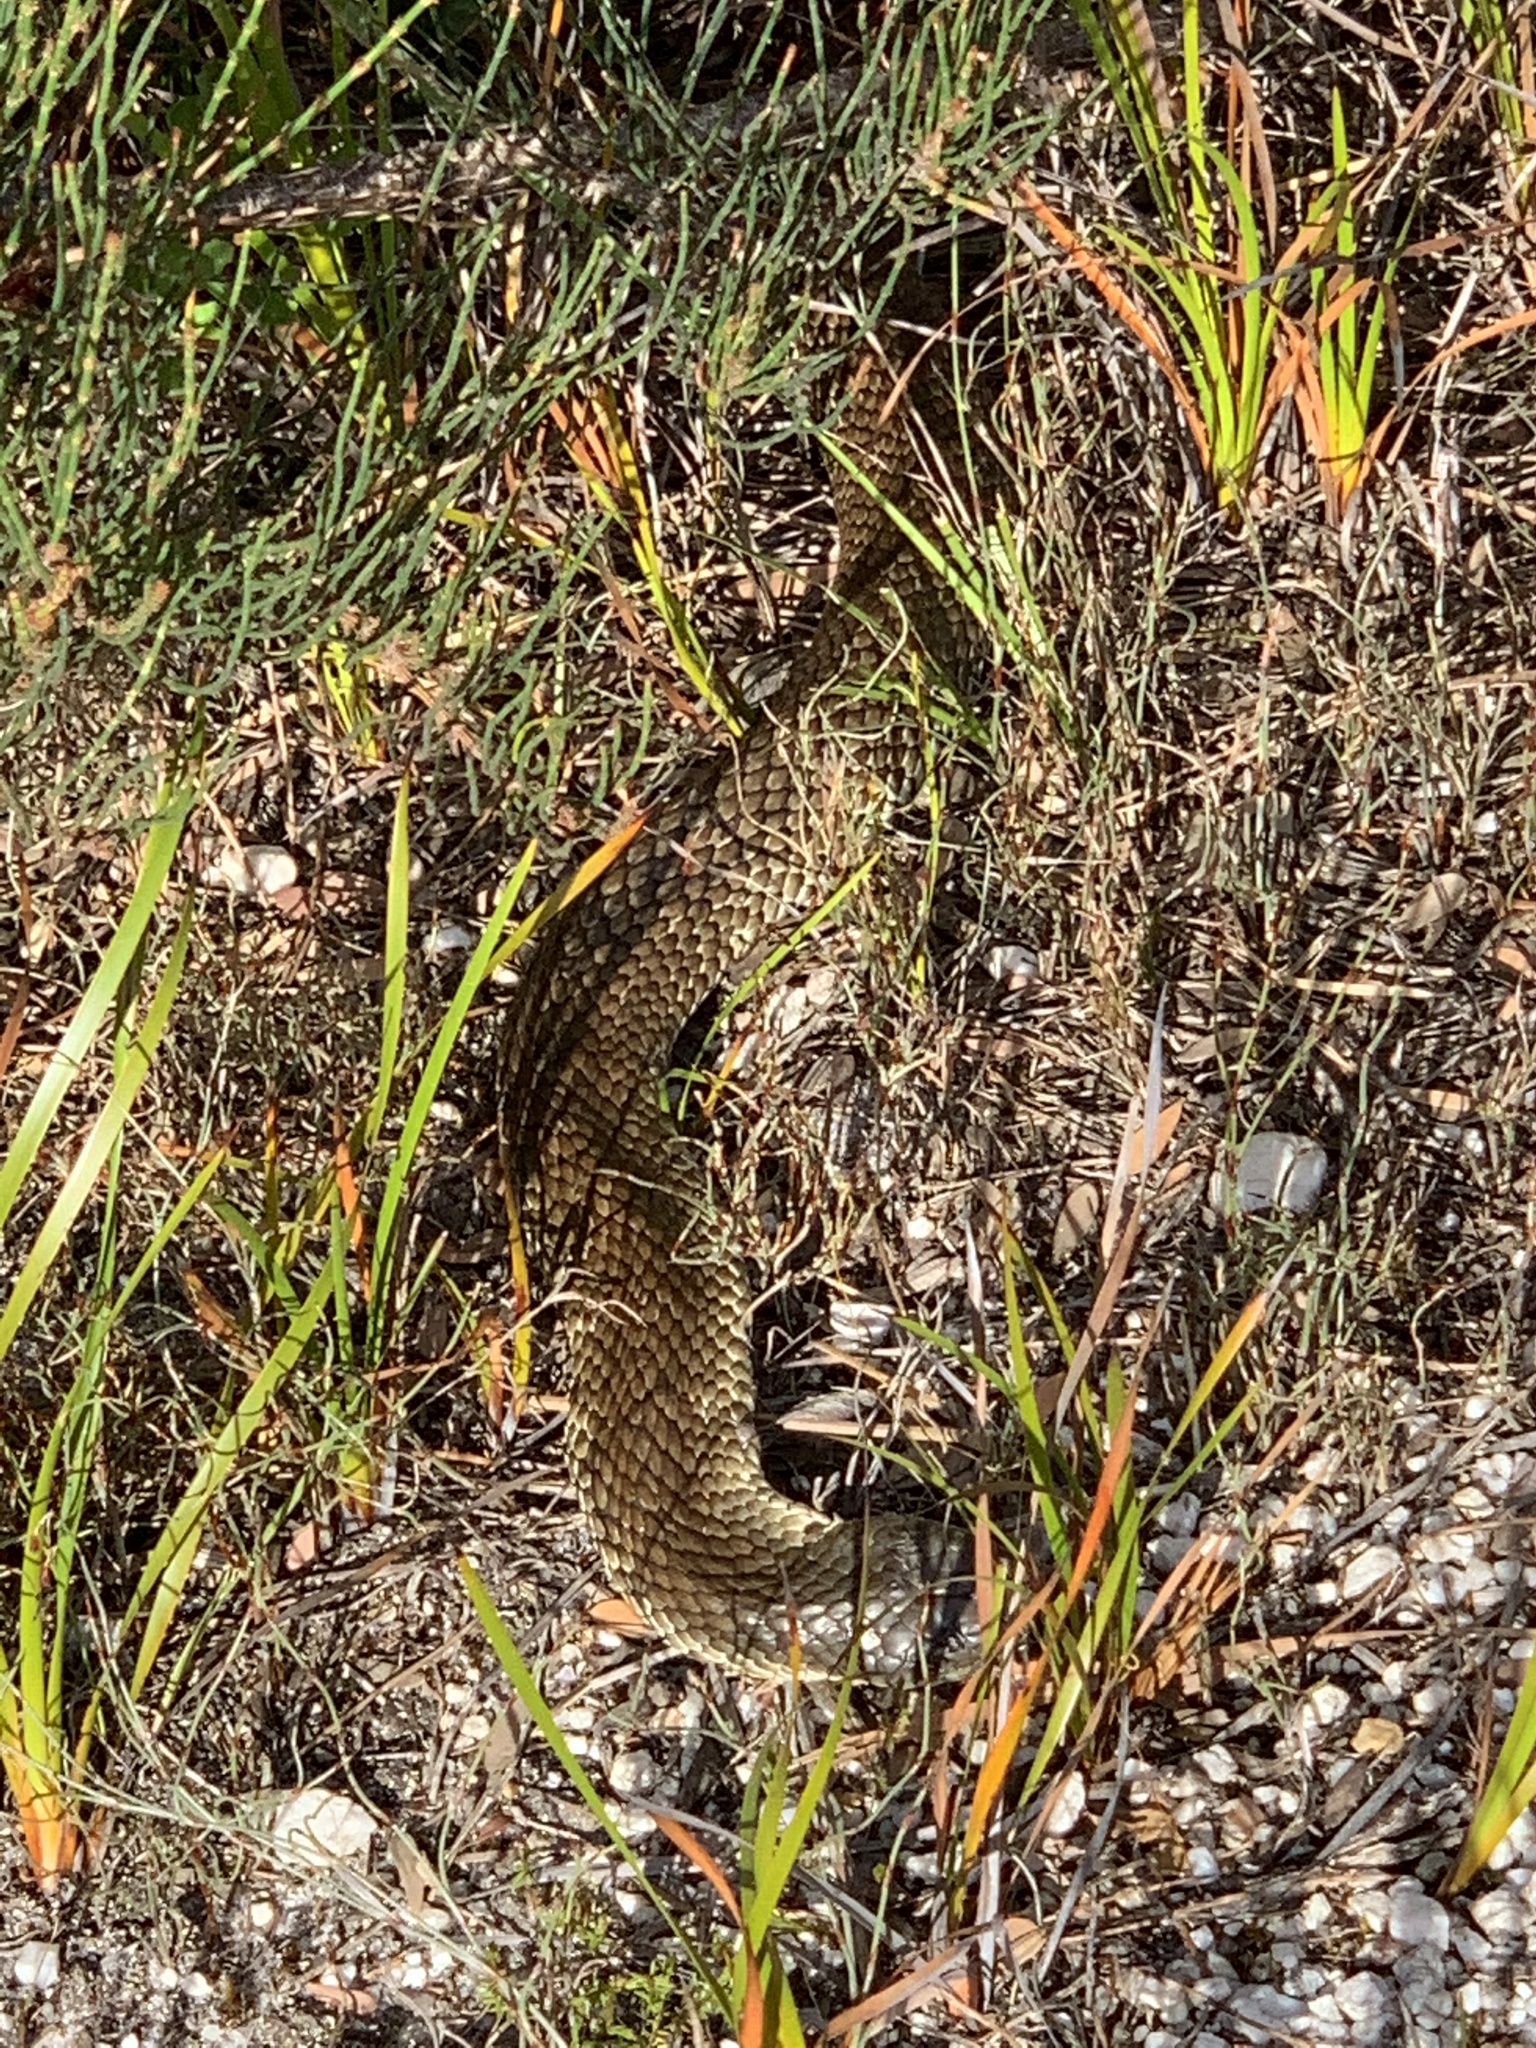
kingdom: Animalia
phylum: Chordata
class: Squamata
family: Elapidae
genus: Notechis
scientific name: Notechis scutatus
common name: Mainland tiger snake
